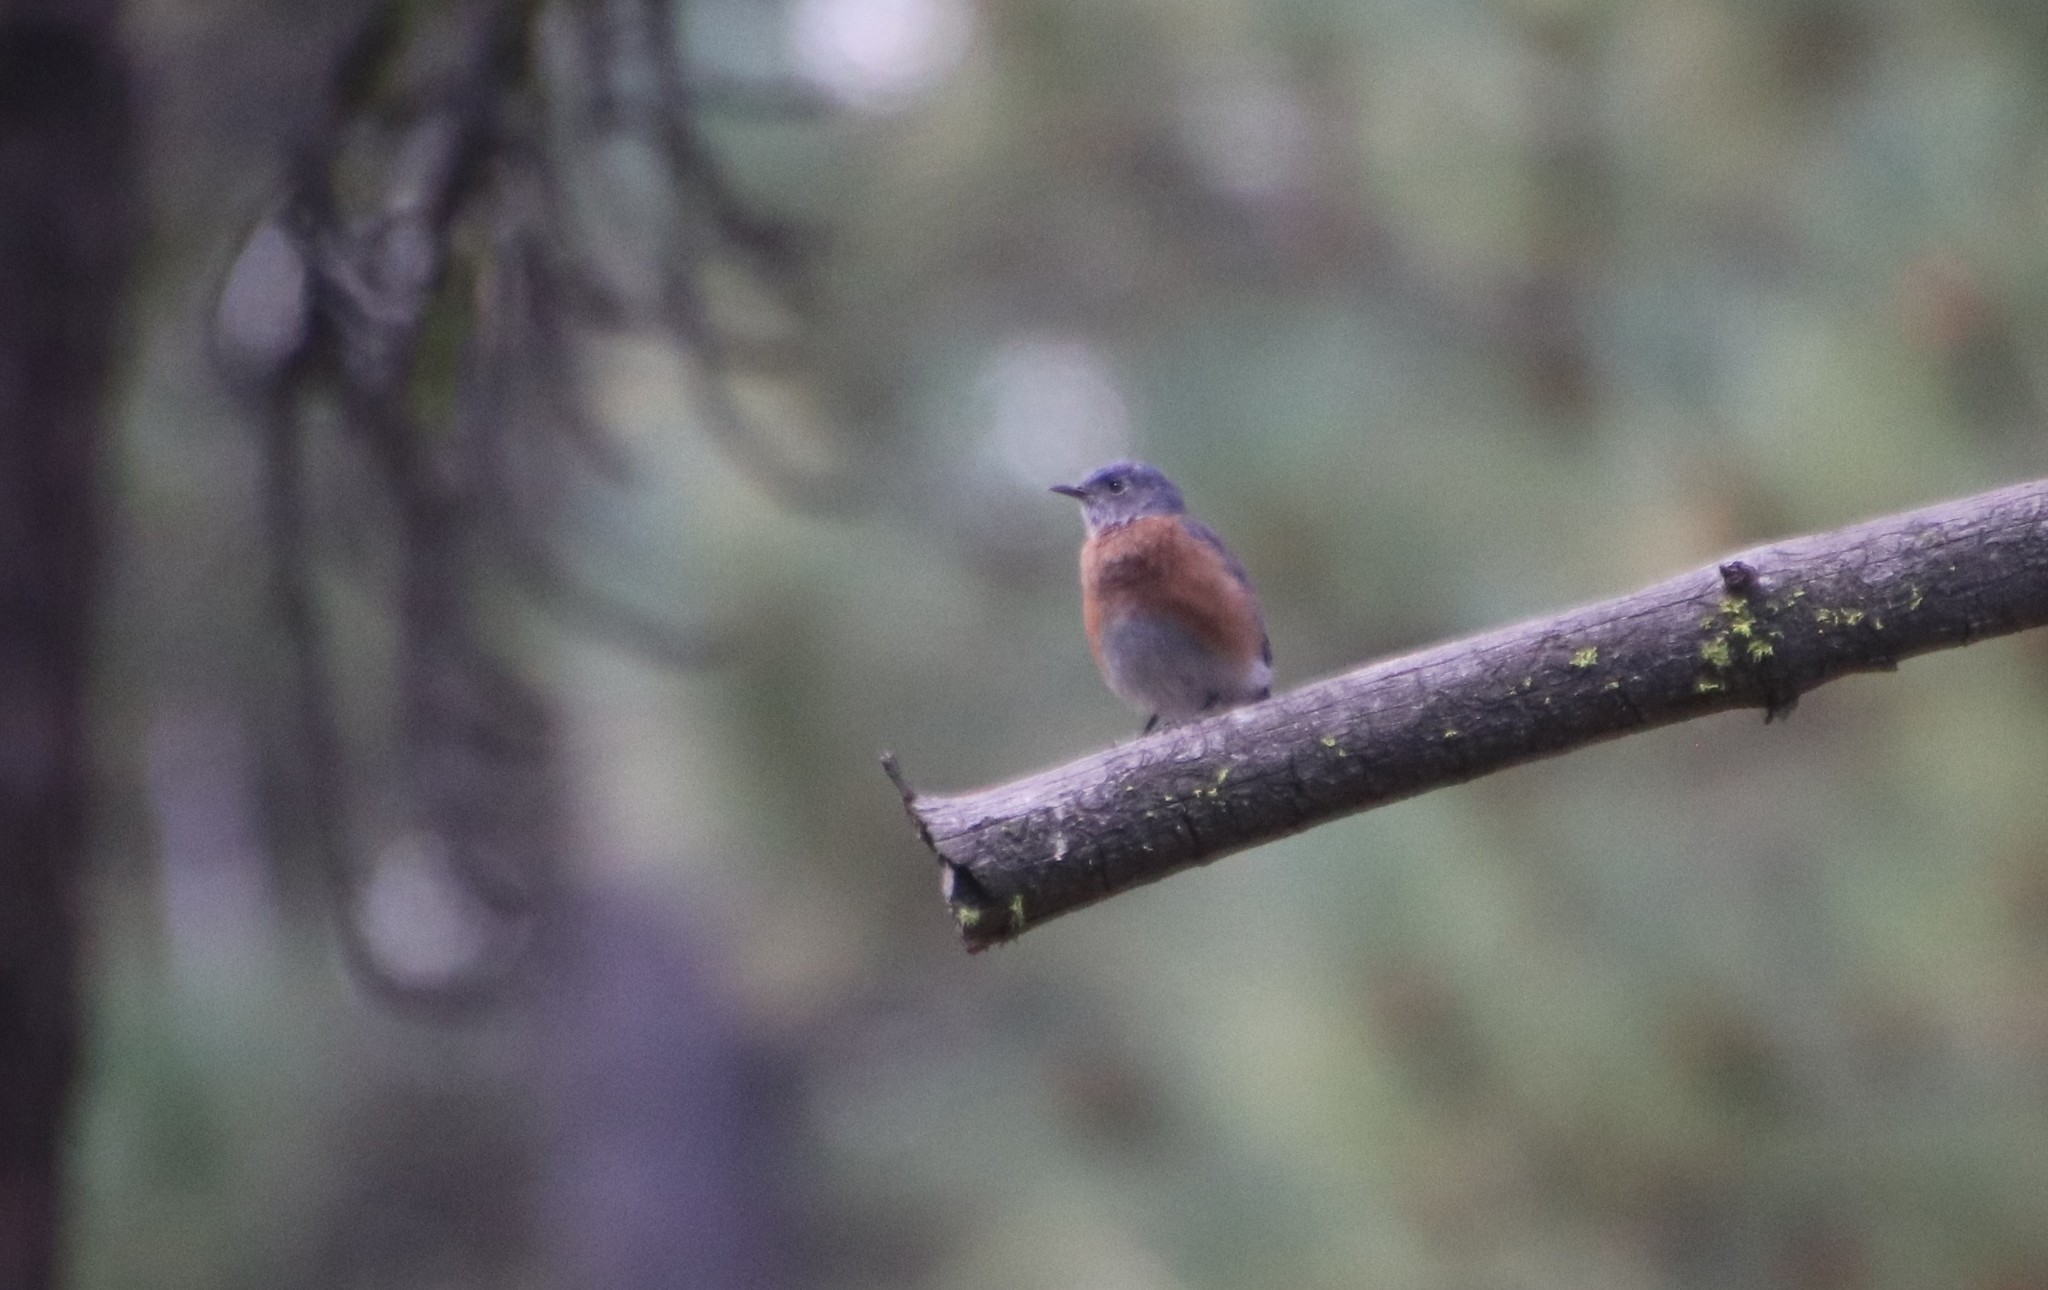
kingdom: Animalia
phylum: Chordata
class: Aves
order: Passeriformes
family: Turdidae
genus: Sialia
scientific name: Sialia mexicana
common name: Western bluebird
